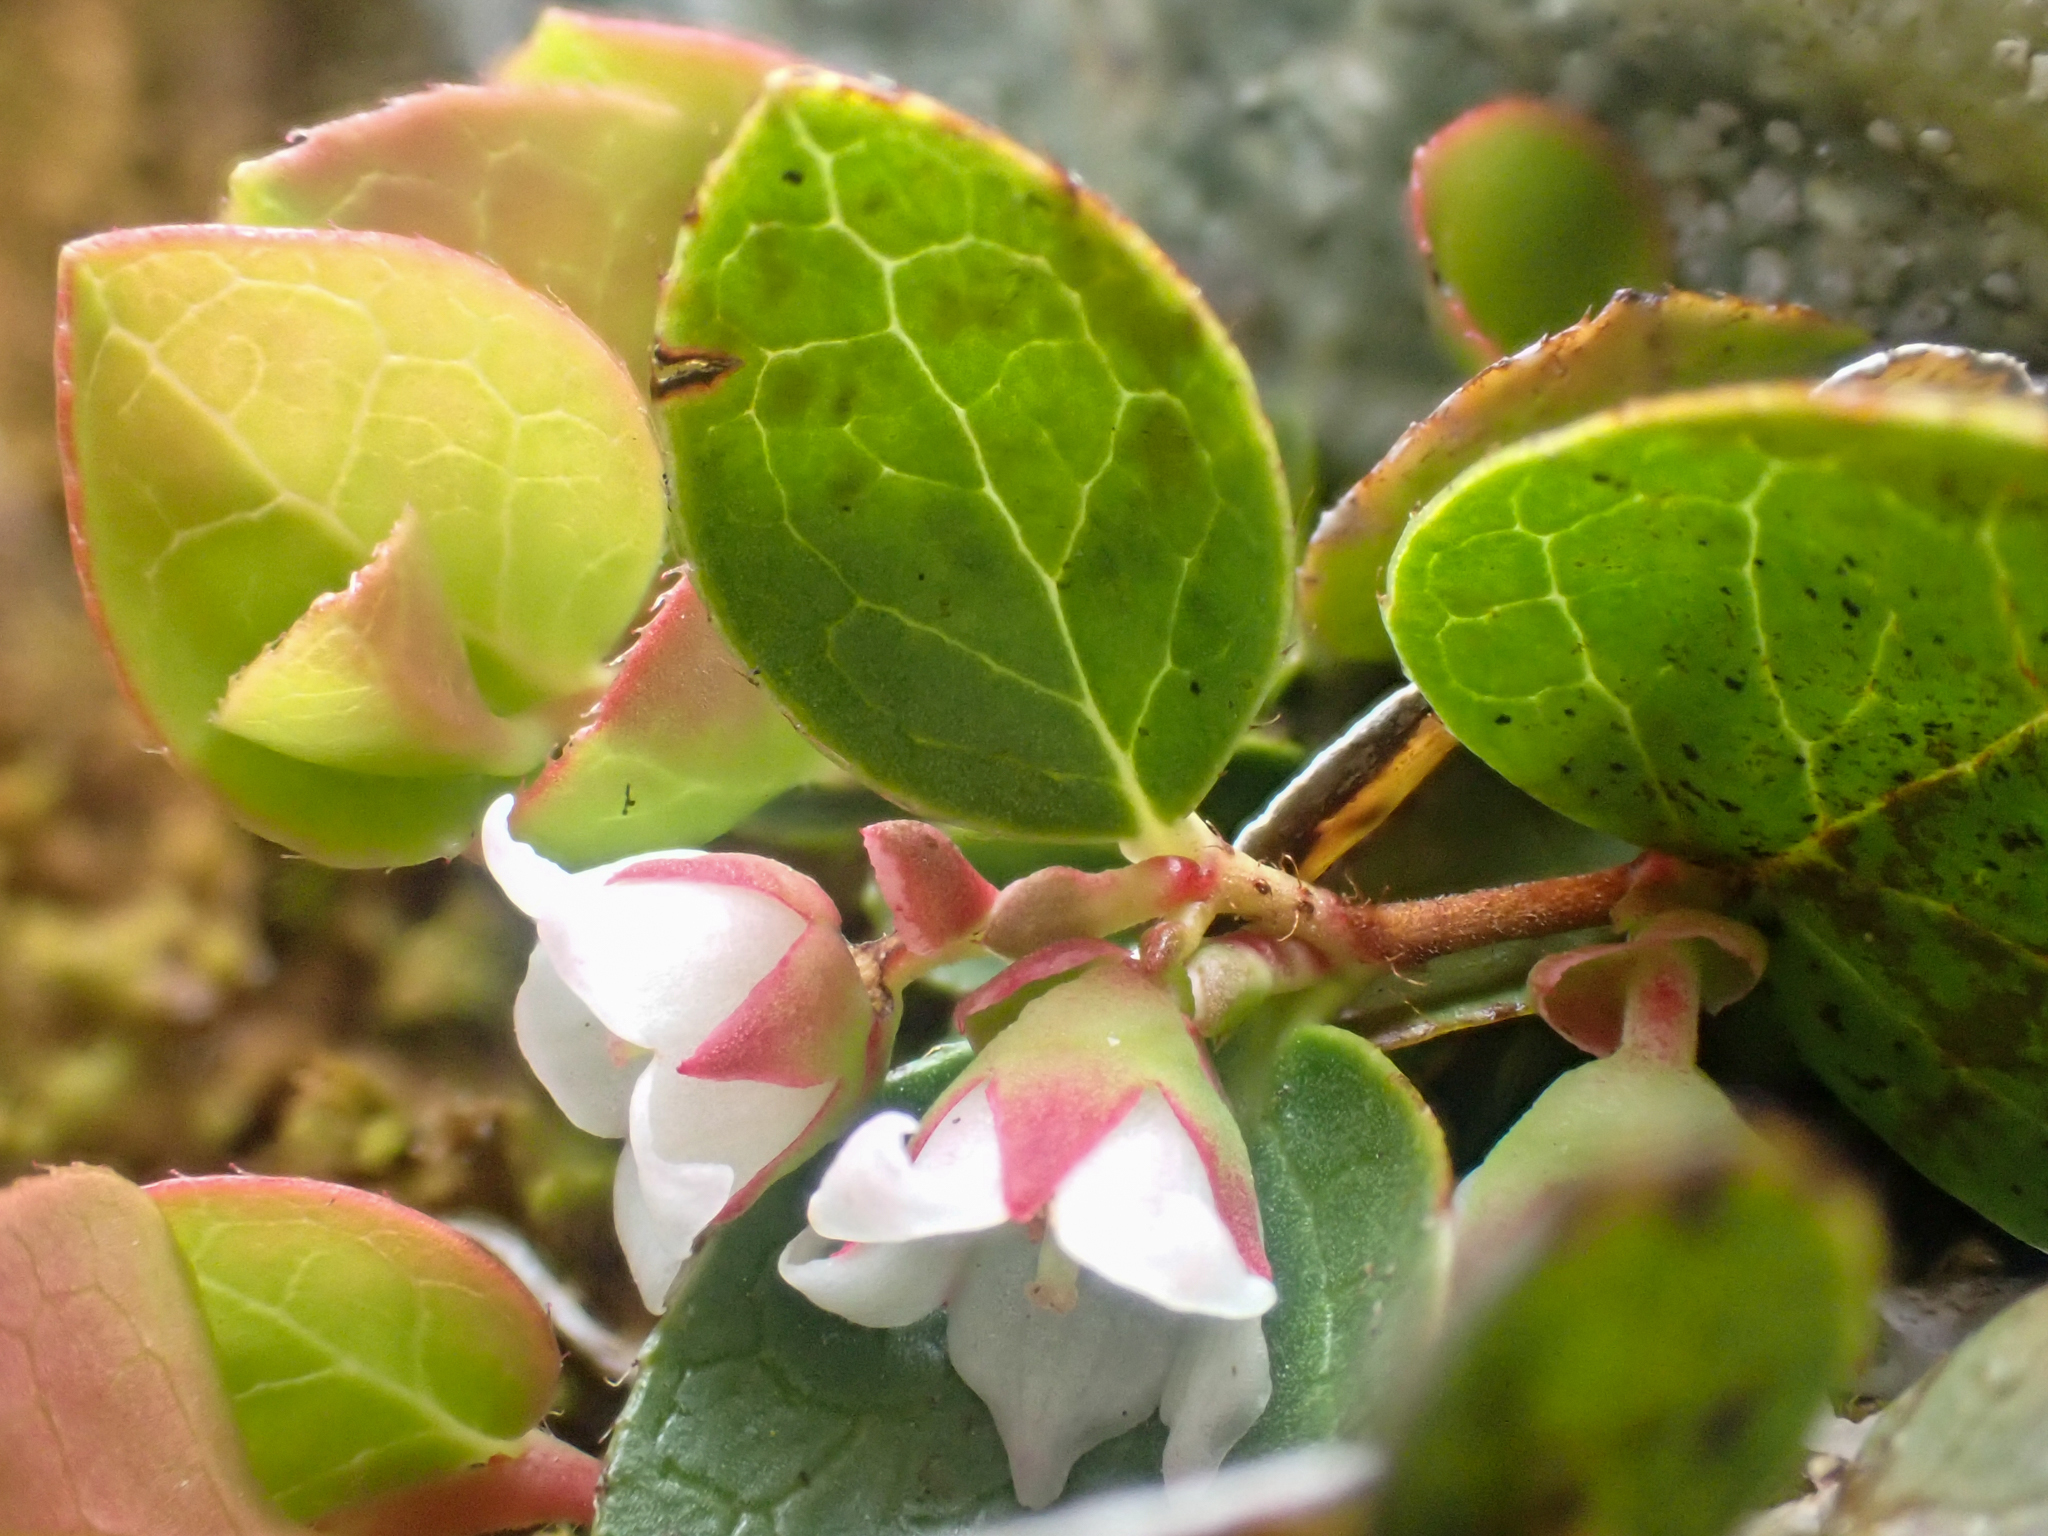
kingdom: Plantae
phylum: Tracheophyta
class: Magnoliopsida
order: Ericales
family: Ericaceae
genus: Gaultheria
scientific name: Gaultheria humifusa
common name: Alpine wintergreen
